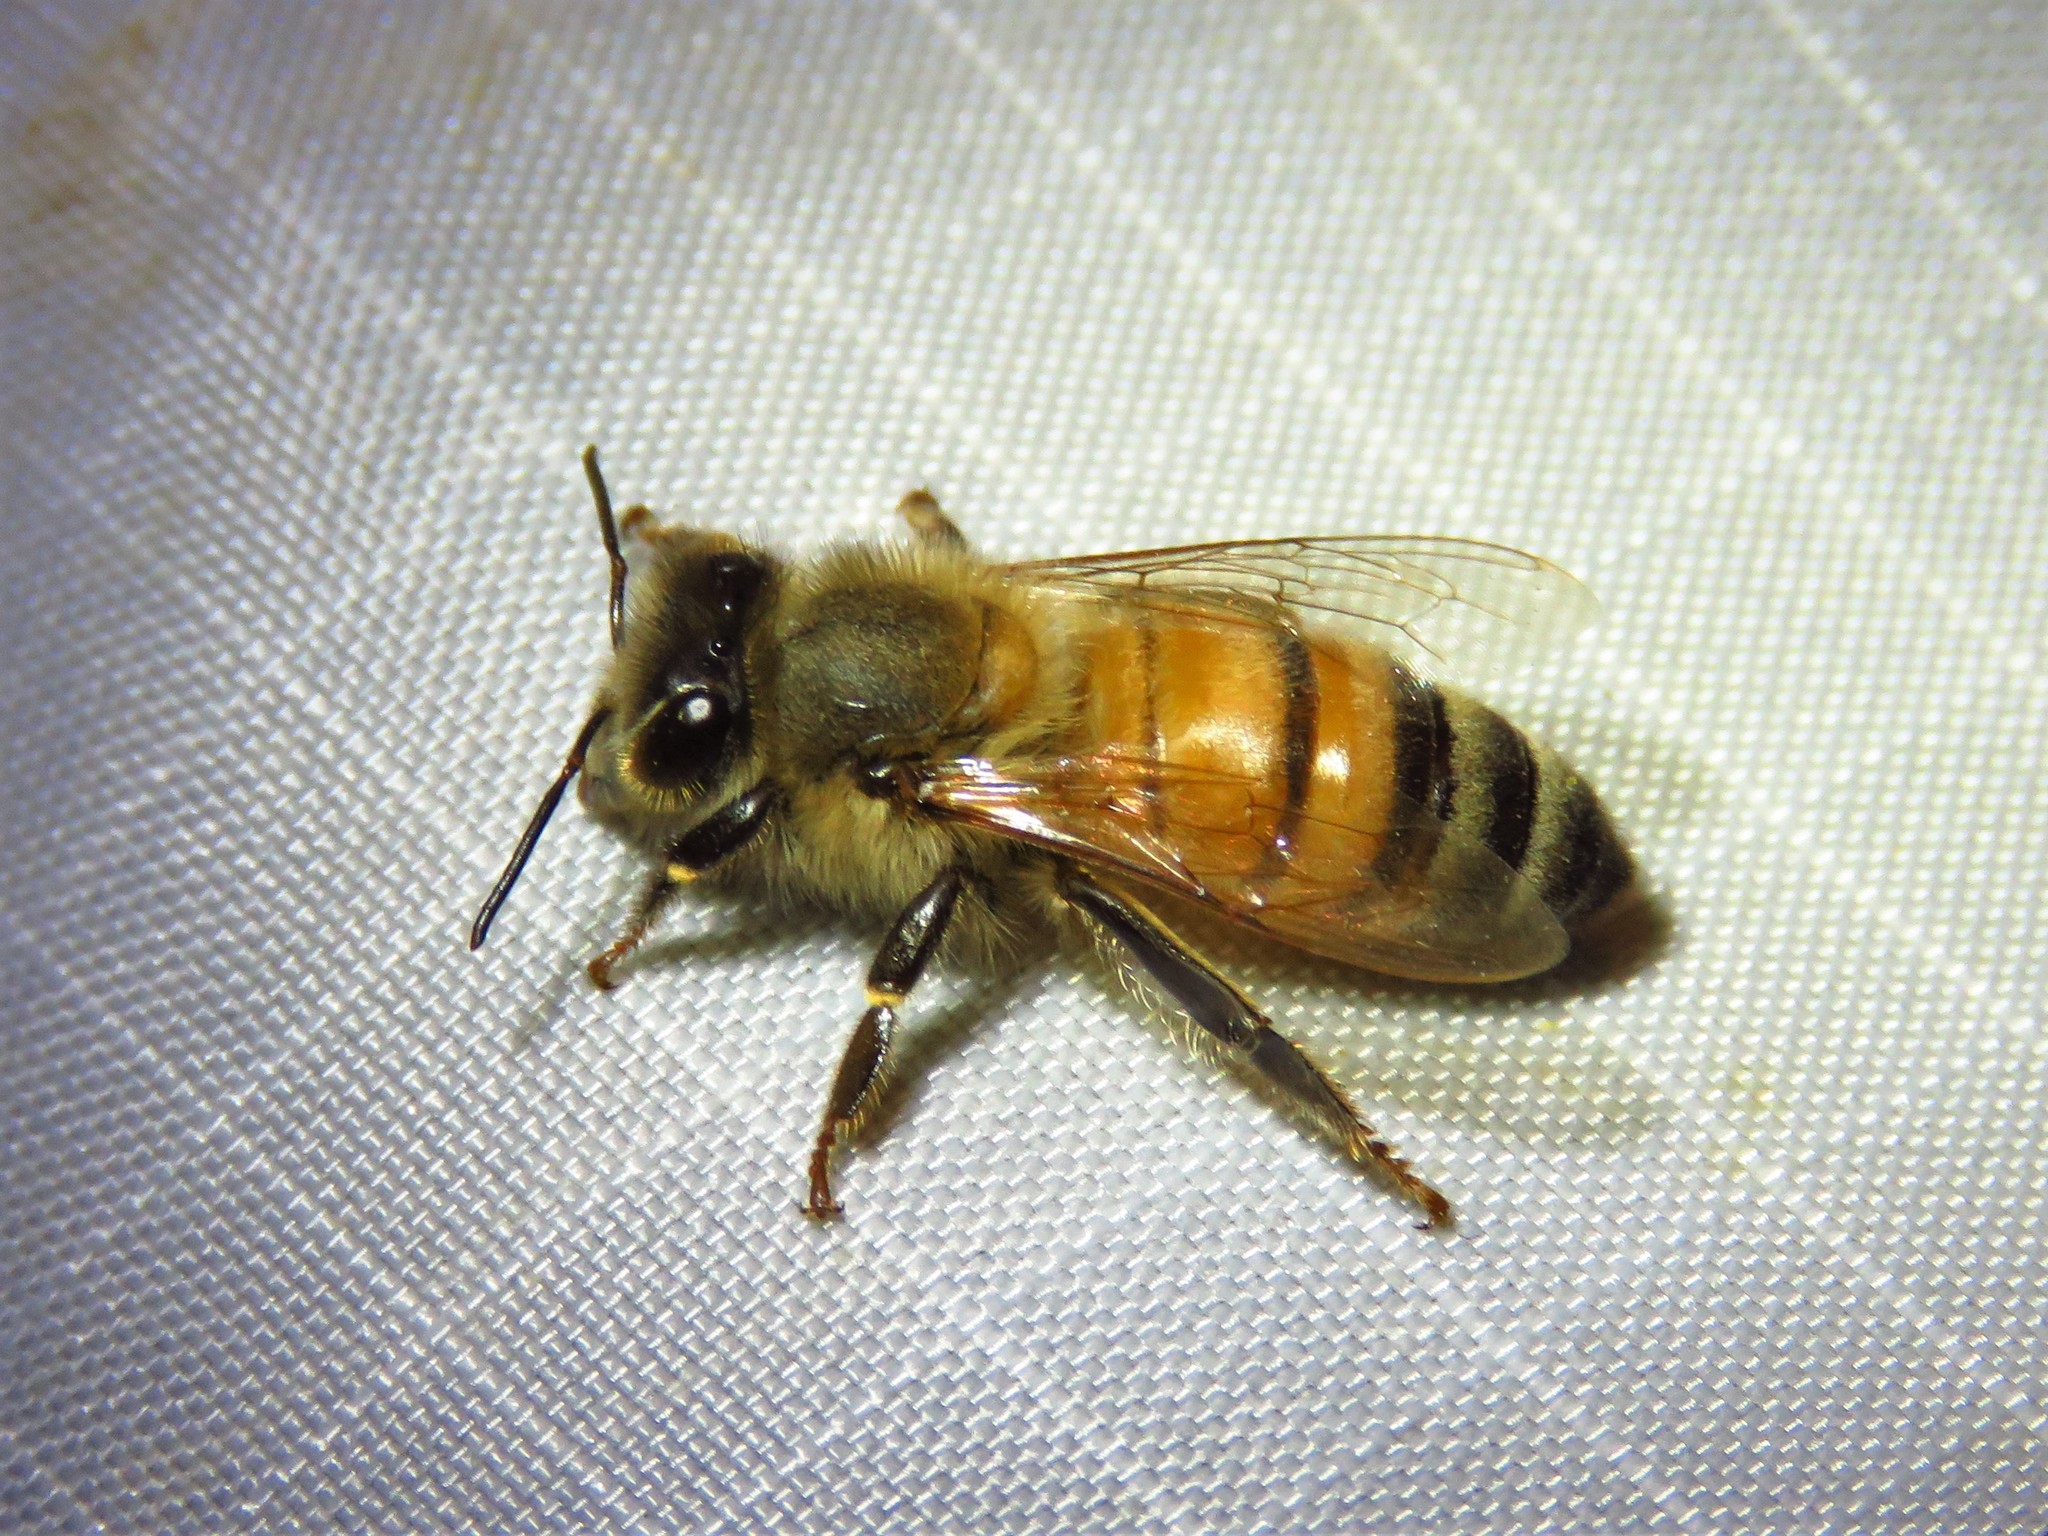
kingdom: Animalia
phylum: Arthropoda
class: Insecta
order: Hymenoptera
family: Apidae
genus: Apis
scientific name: Apis mellifera
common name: Honey bee
